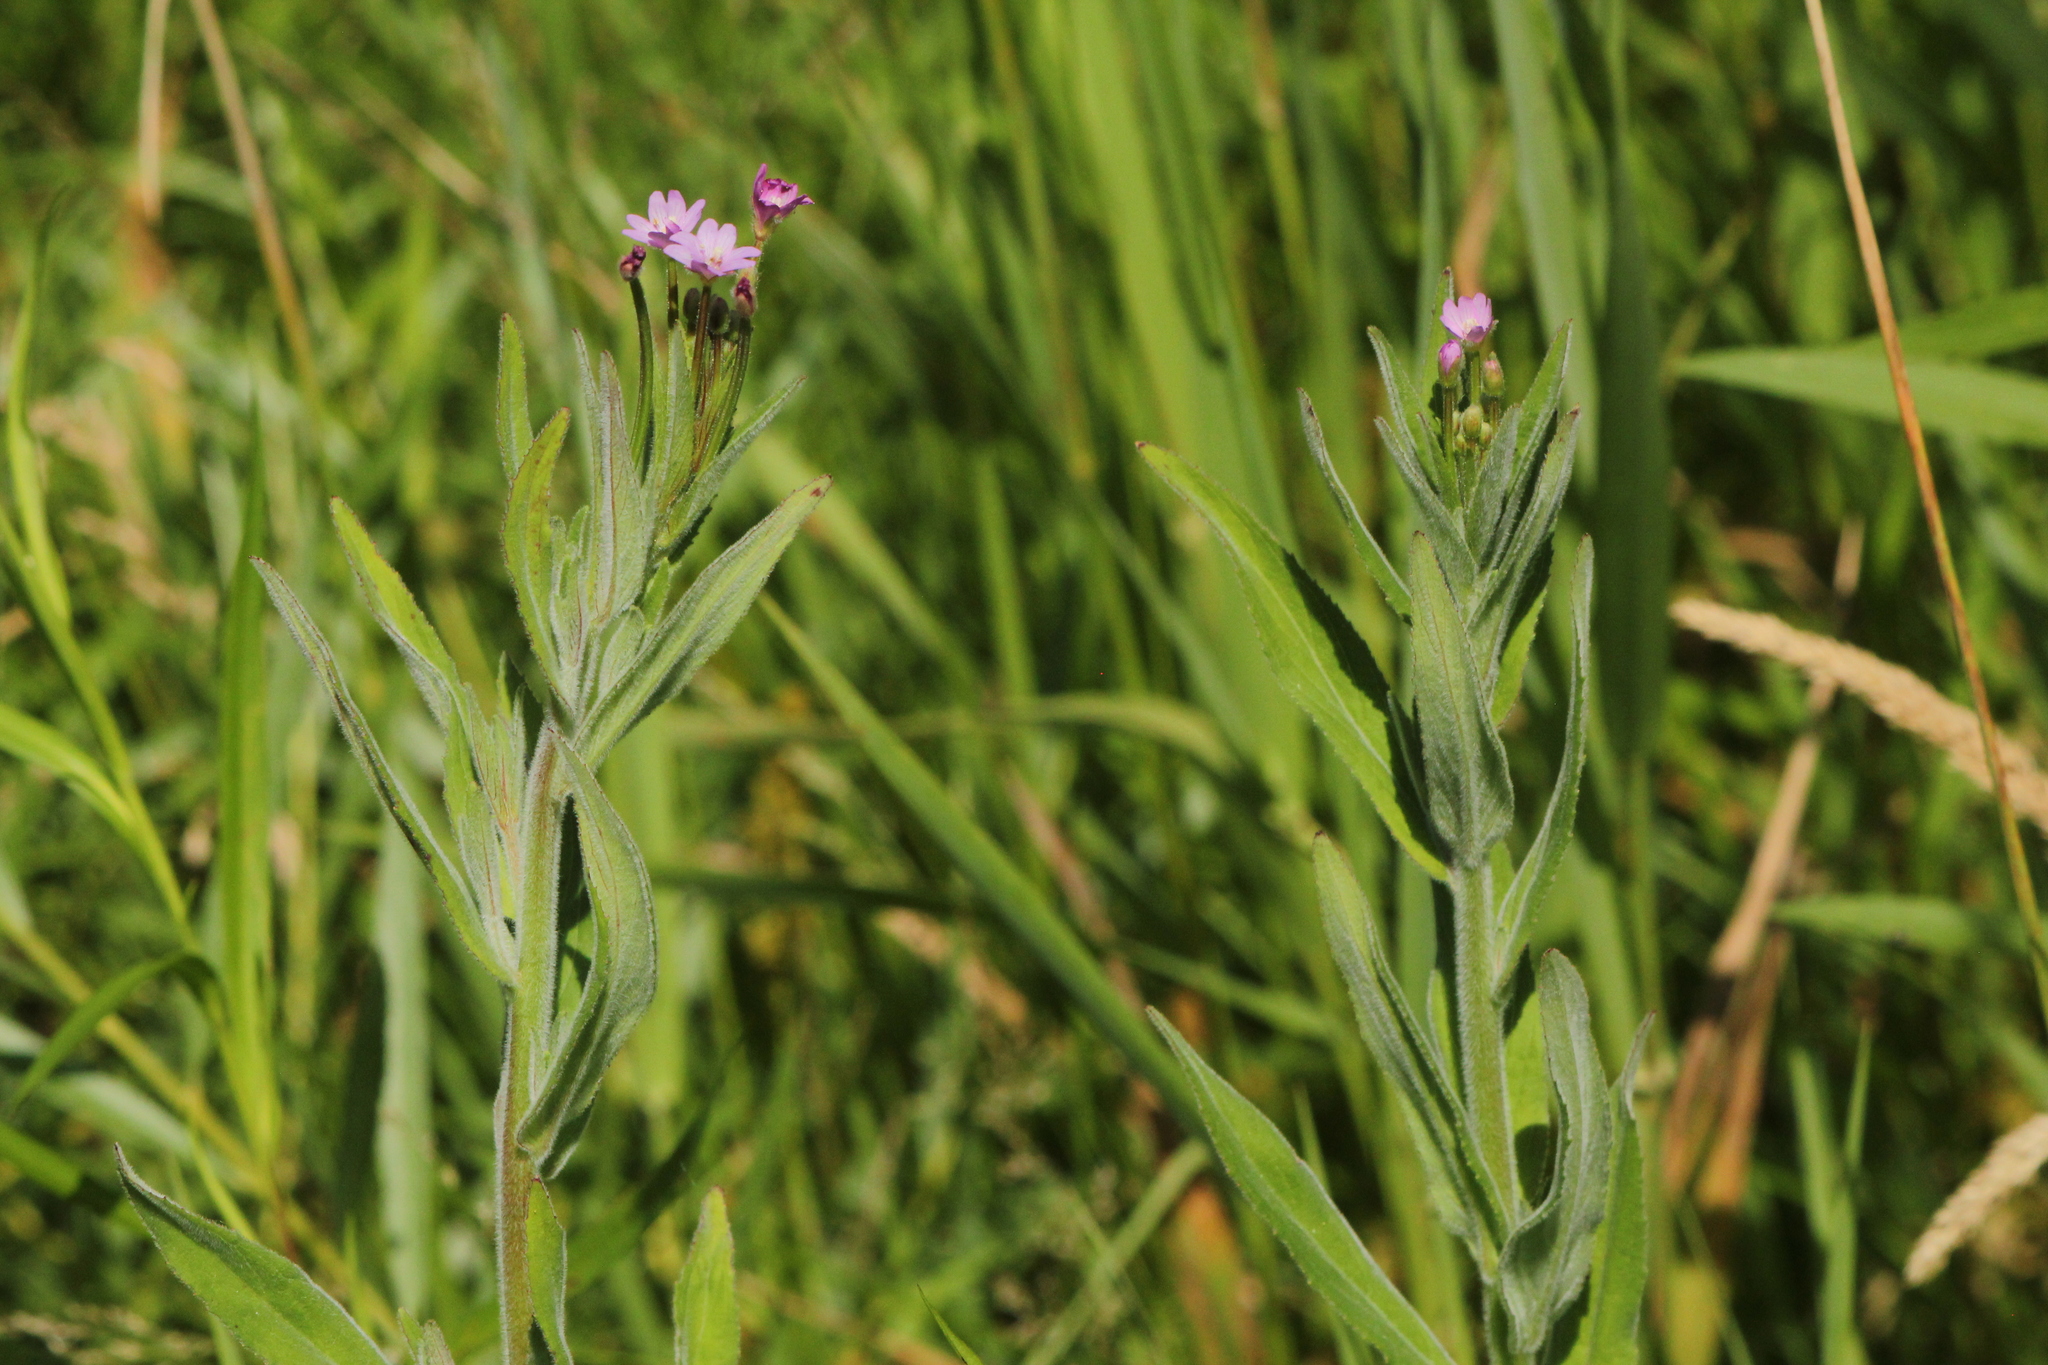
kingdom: Plantae
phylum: Tracheophyta
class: Magnoliopsida
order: Myrtales
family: Onagraceae
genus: Epilobium
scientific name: Epilobium parviflorum
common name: Hoary willowherb
